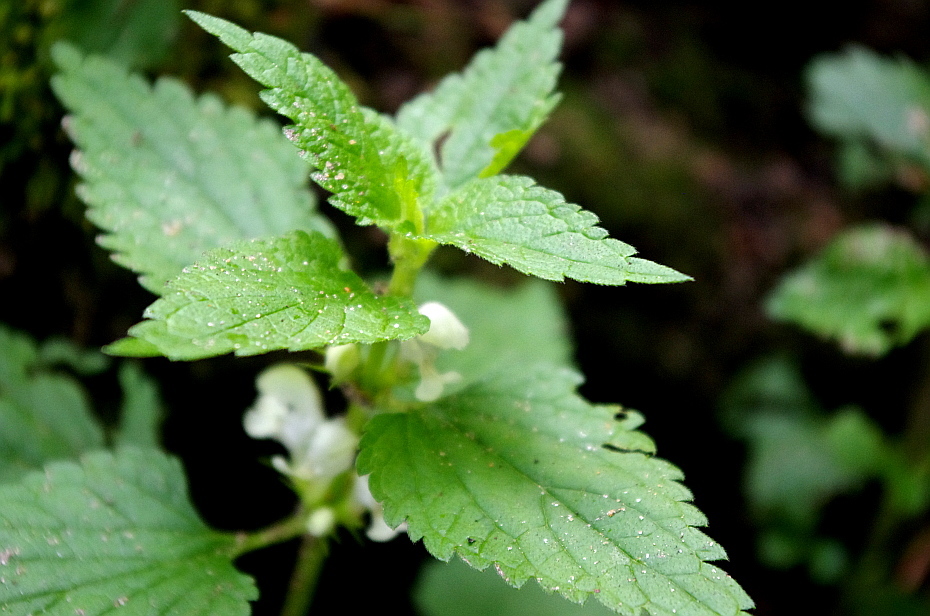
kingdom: Plantae
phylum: Tracheophyta
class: Magnoliopsida
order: Lamiales
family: Lamiaceae
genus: Lamium
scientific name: Lamium album
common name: White dead-nettle
